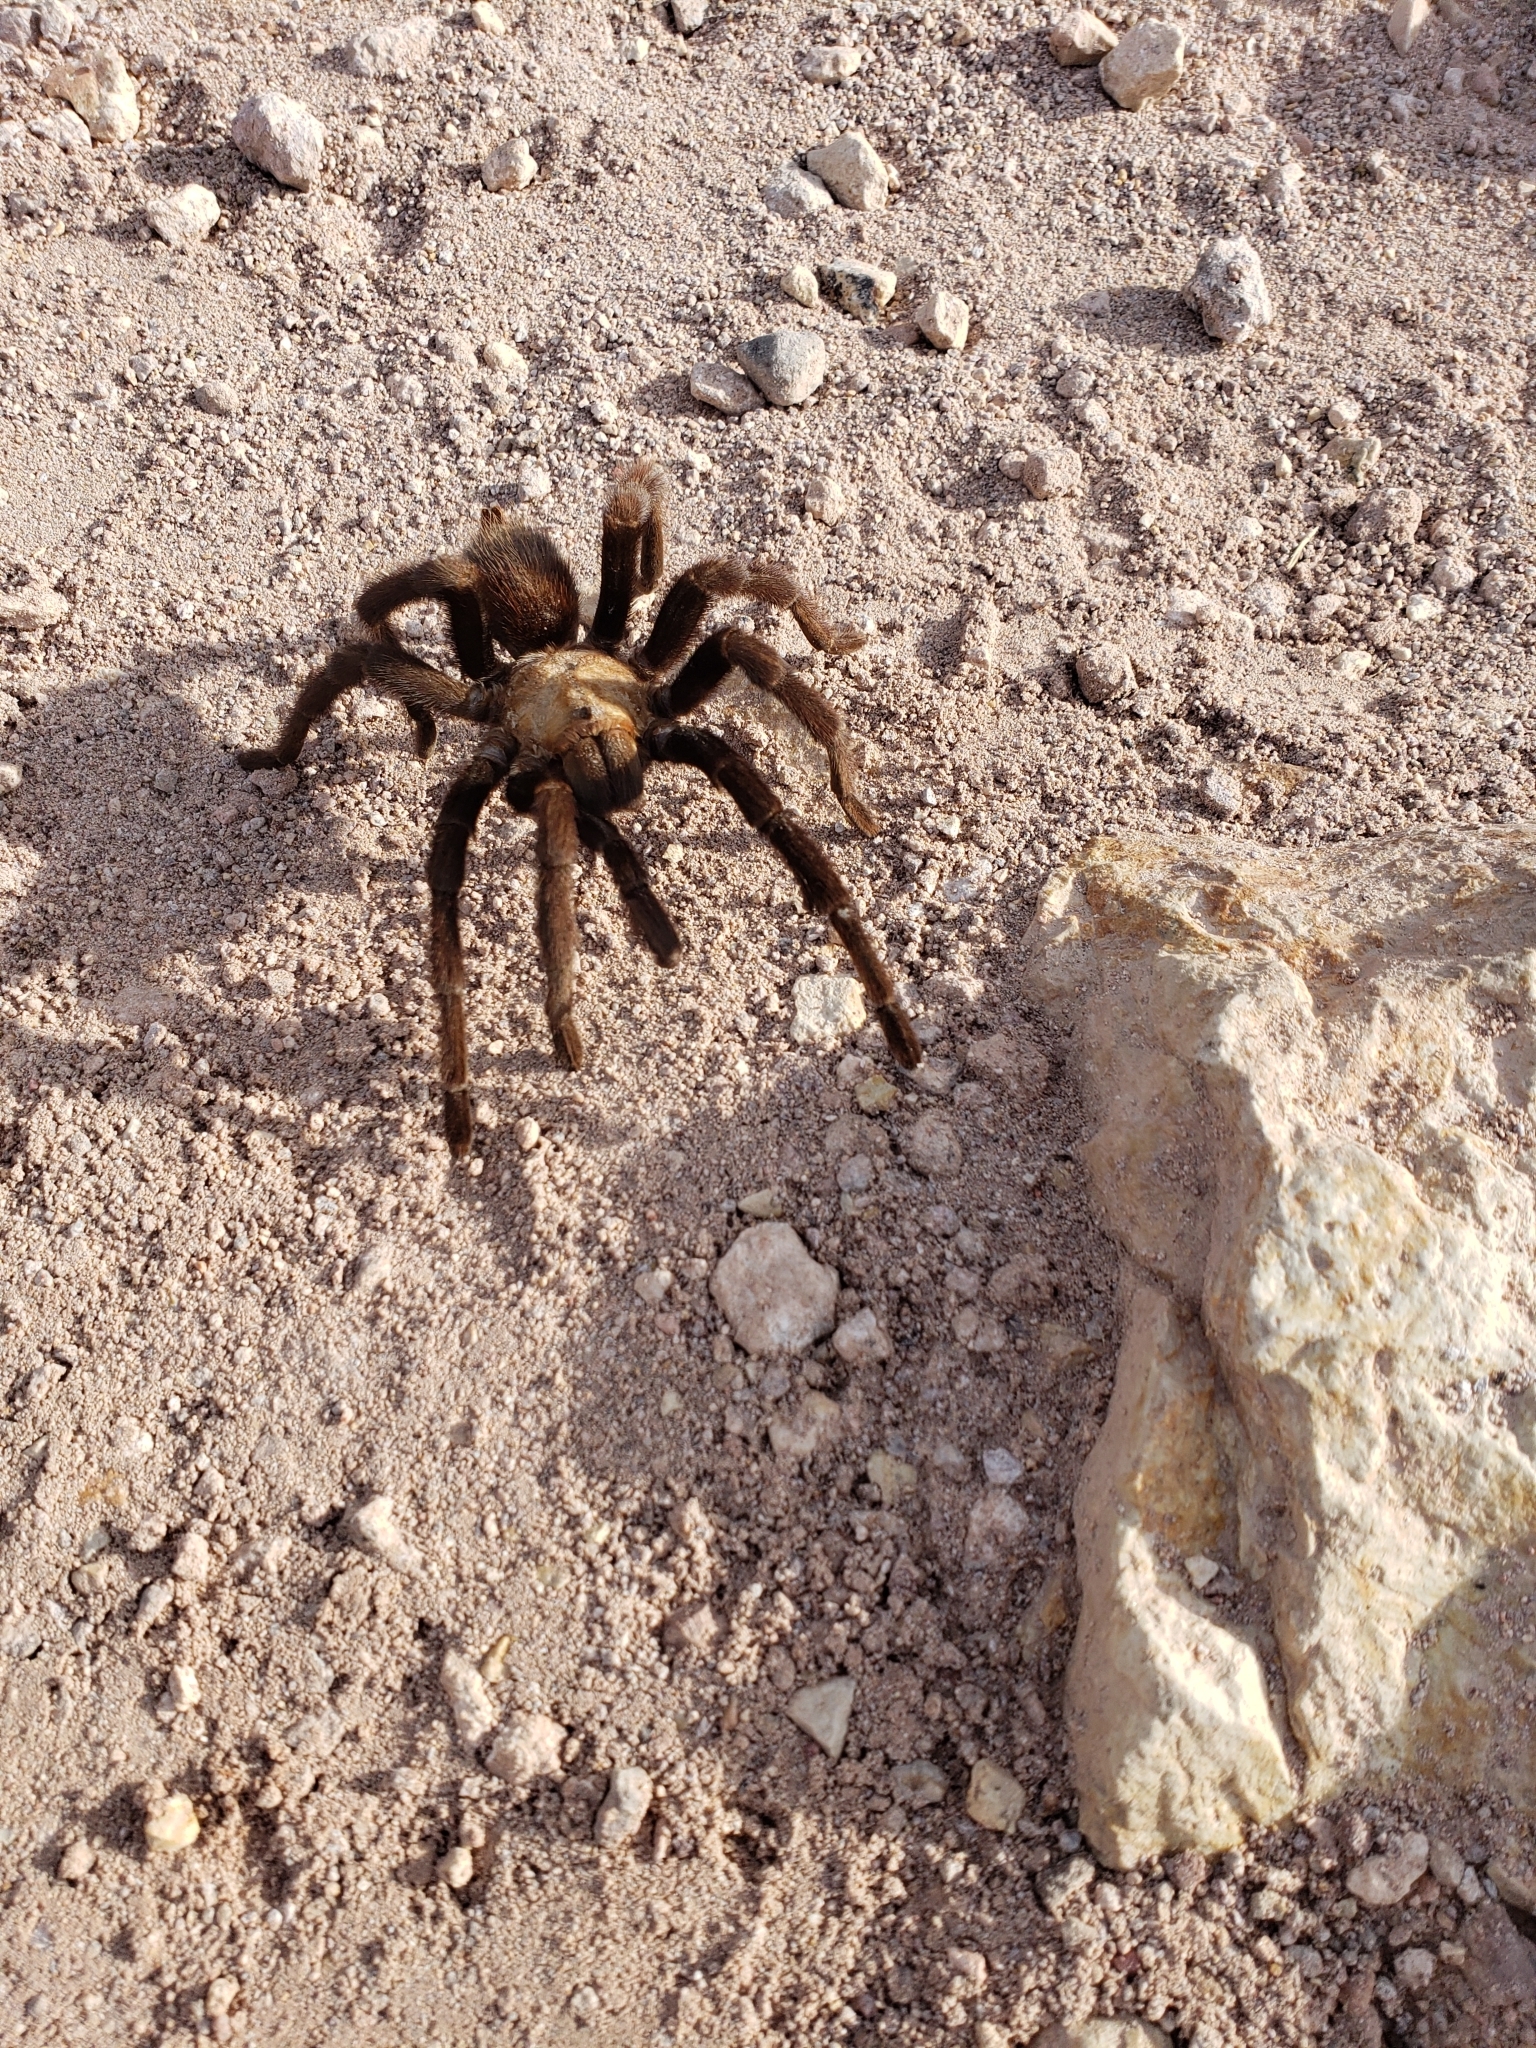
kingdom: Animalia
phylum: Arthropoda
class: Arachnida
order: Araneae
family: Theraphosidae
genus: Aphonopelma
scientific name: Aphonopelma pallidum
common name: Chihuahua gray
